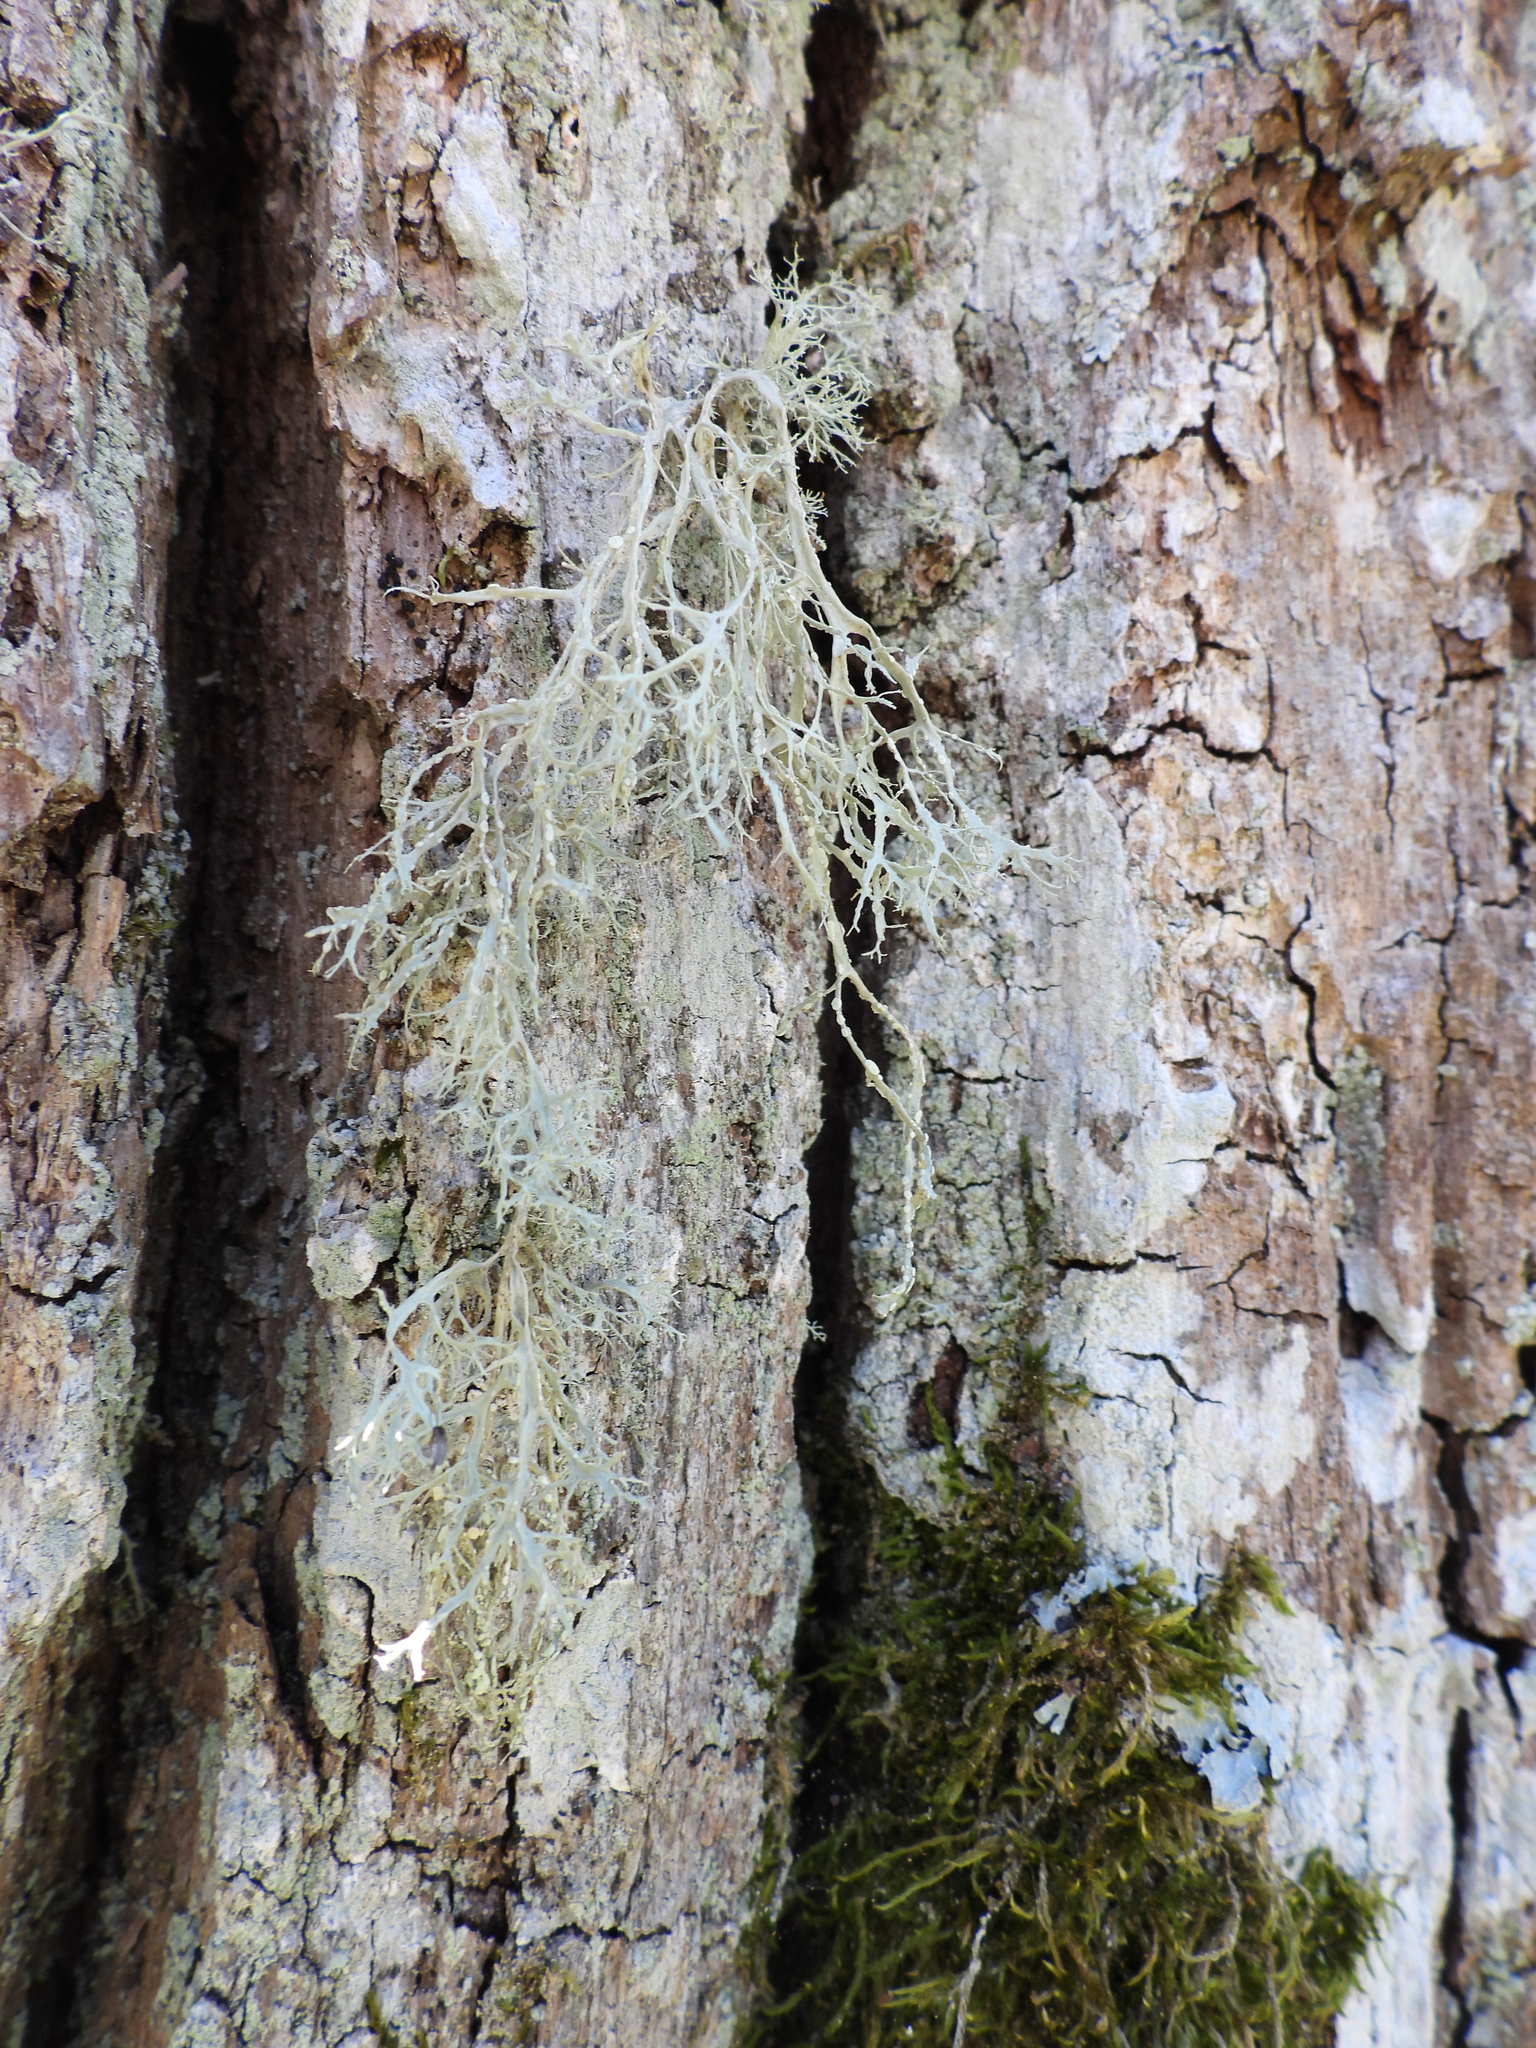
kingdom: Fungi
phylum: Ascomycota
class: Lecanoromycetes
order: Lecanorales
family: Ramalinaceae
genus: Ramalina
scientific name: Ramalina farinacea
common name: Farinose cartilage lichen
